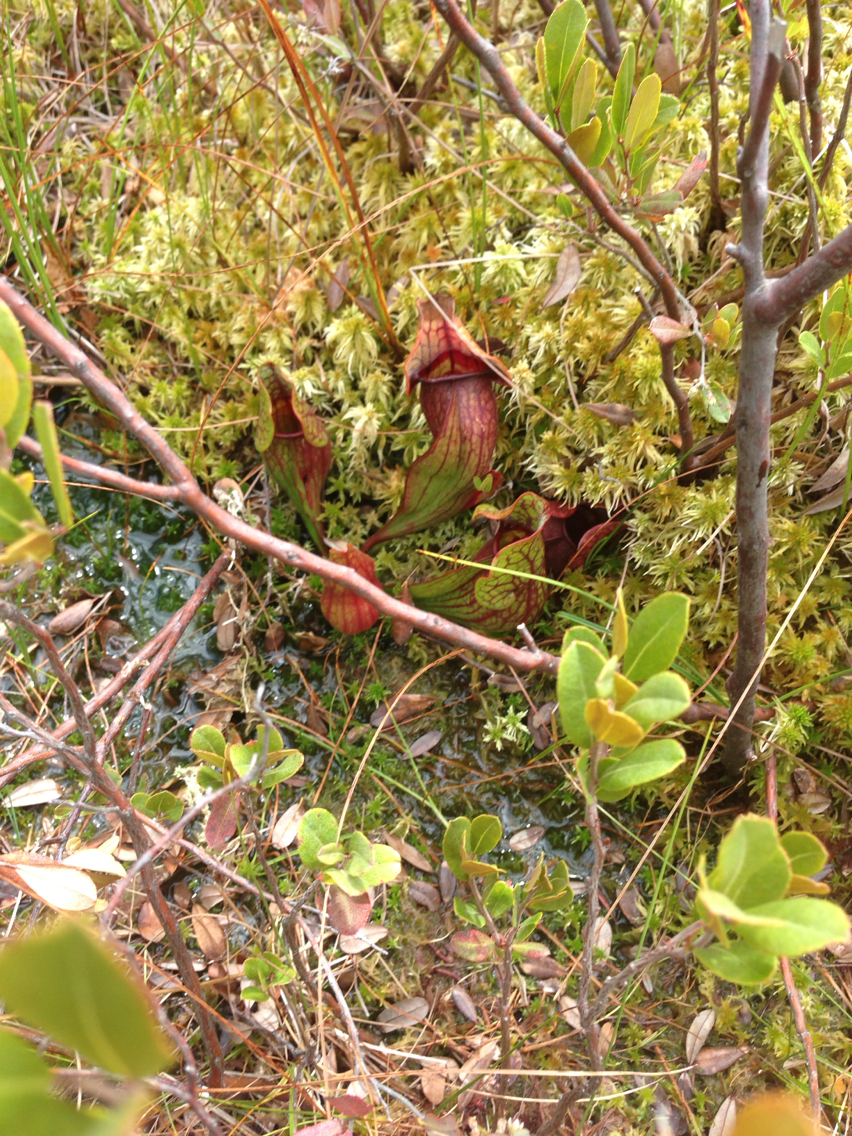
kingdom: Plantae
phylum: Tracheophyta
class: Magnoliopsida
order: Ericales
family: Sarraceniaceae
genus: Sarracenia
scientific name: Sarracenia purpurea
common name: Pitcherplant
